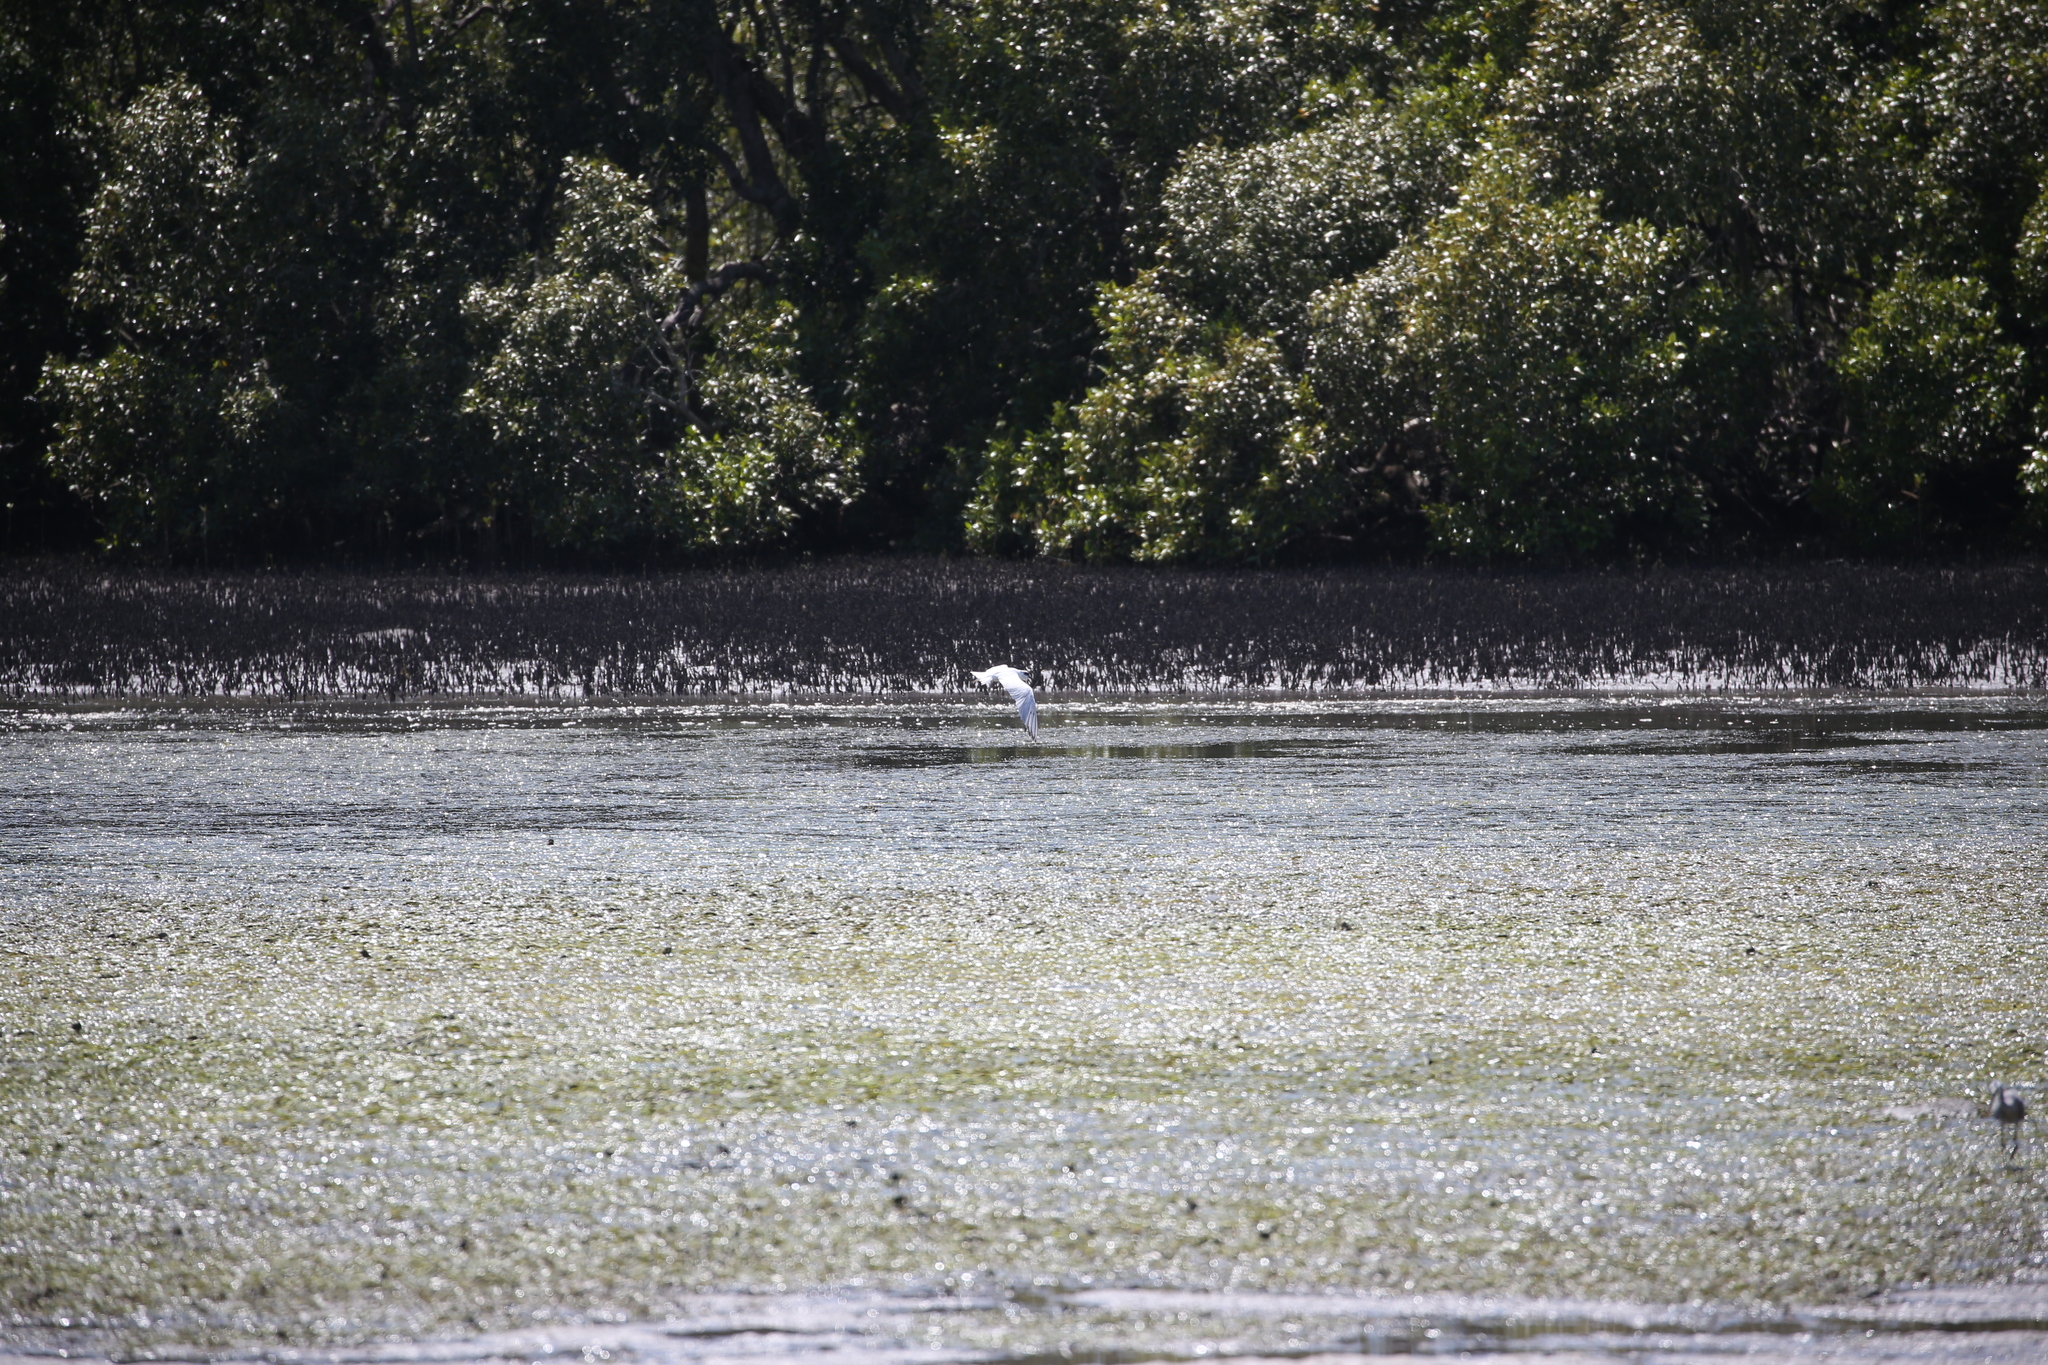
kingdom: Animalia
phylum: Chordata
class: Aves
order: Charadriiformes
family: Laridae
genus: Gelochelidon
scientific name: Gelochelidon macrotarsa
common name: Australian tern
